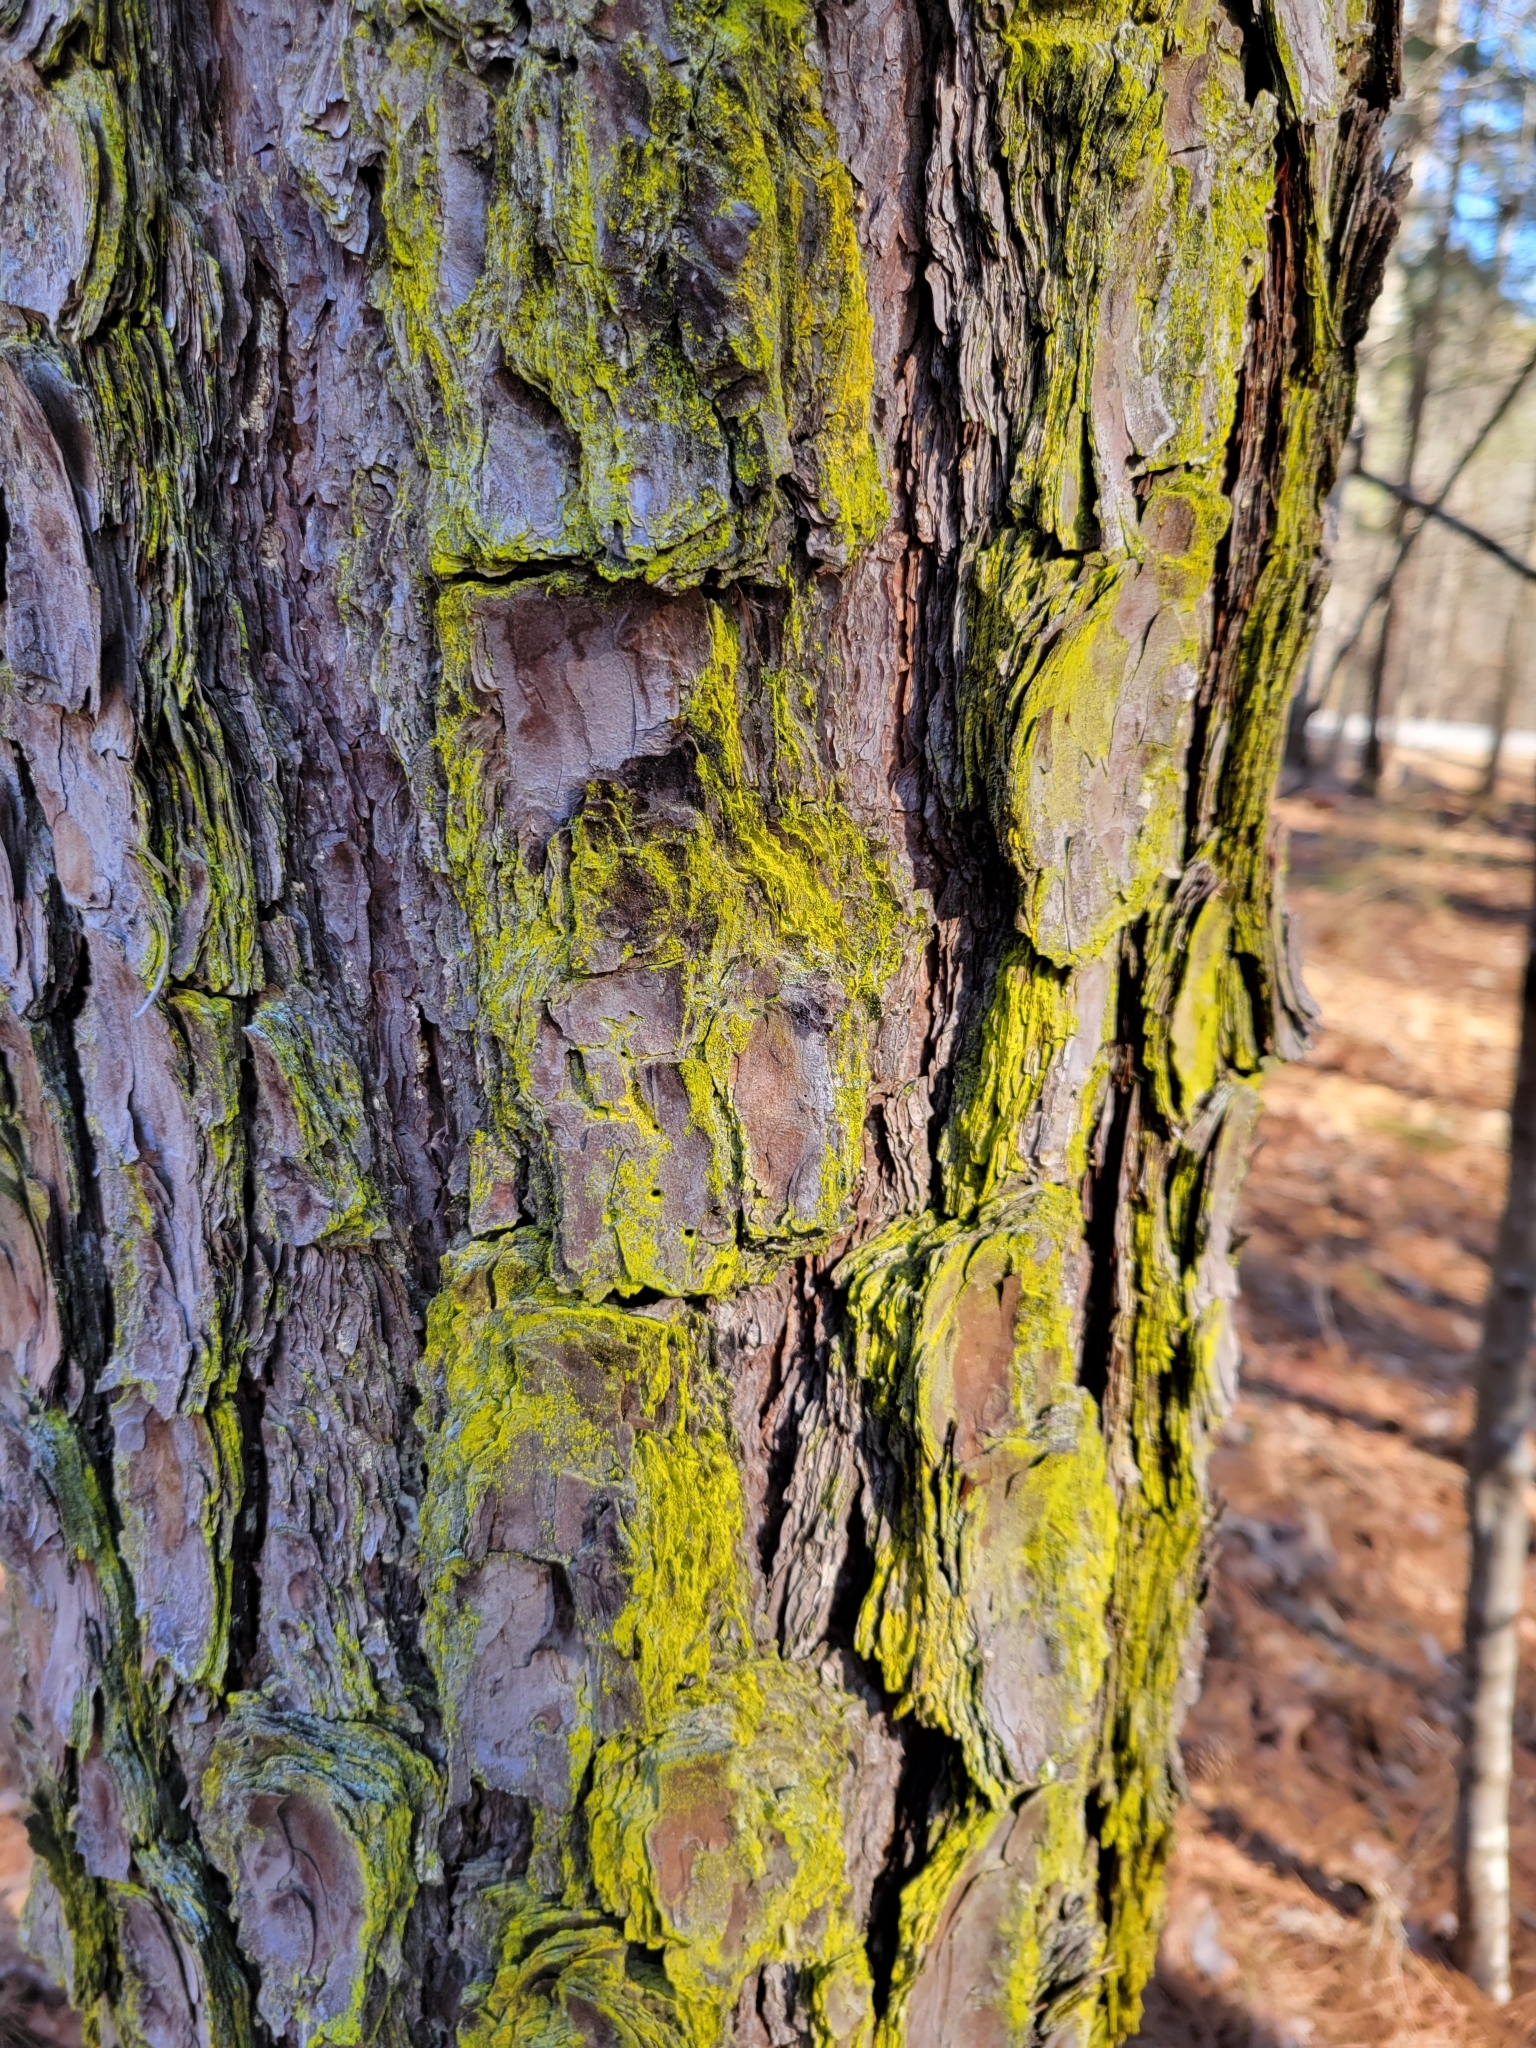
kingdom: Fungi
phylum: Ascomycota
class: Arthoniomycetes
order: Arthoniales
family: Chrysotrichaceae
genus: Chrysothrix
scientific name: Chrysothrix xanthina
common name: Common gold-dust
